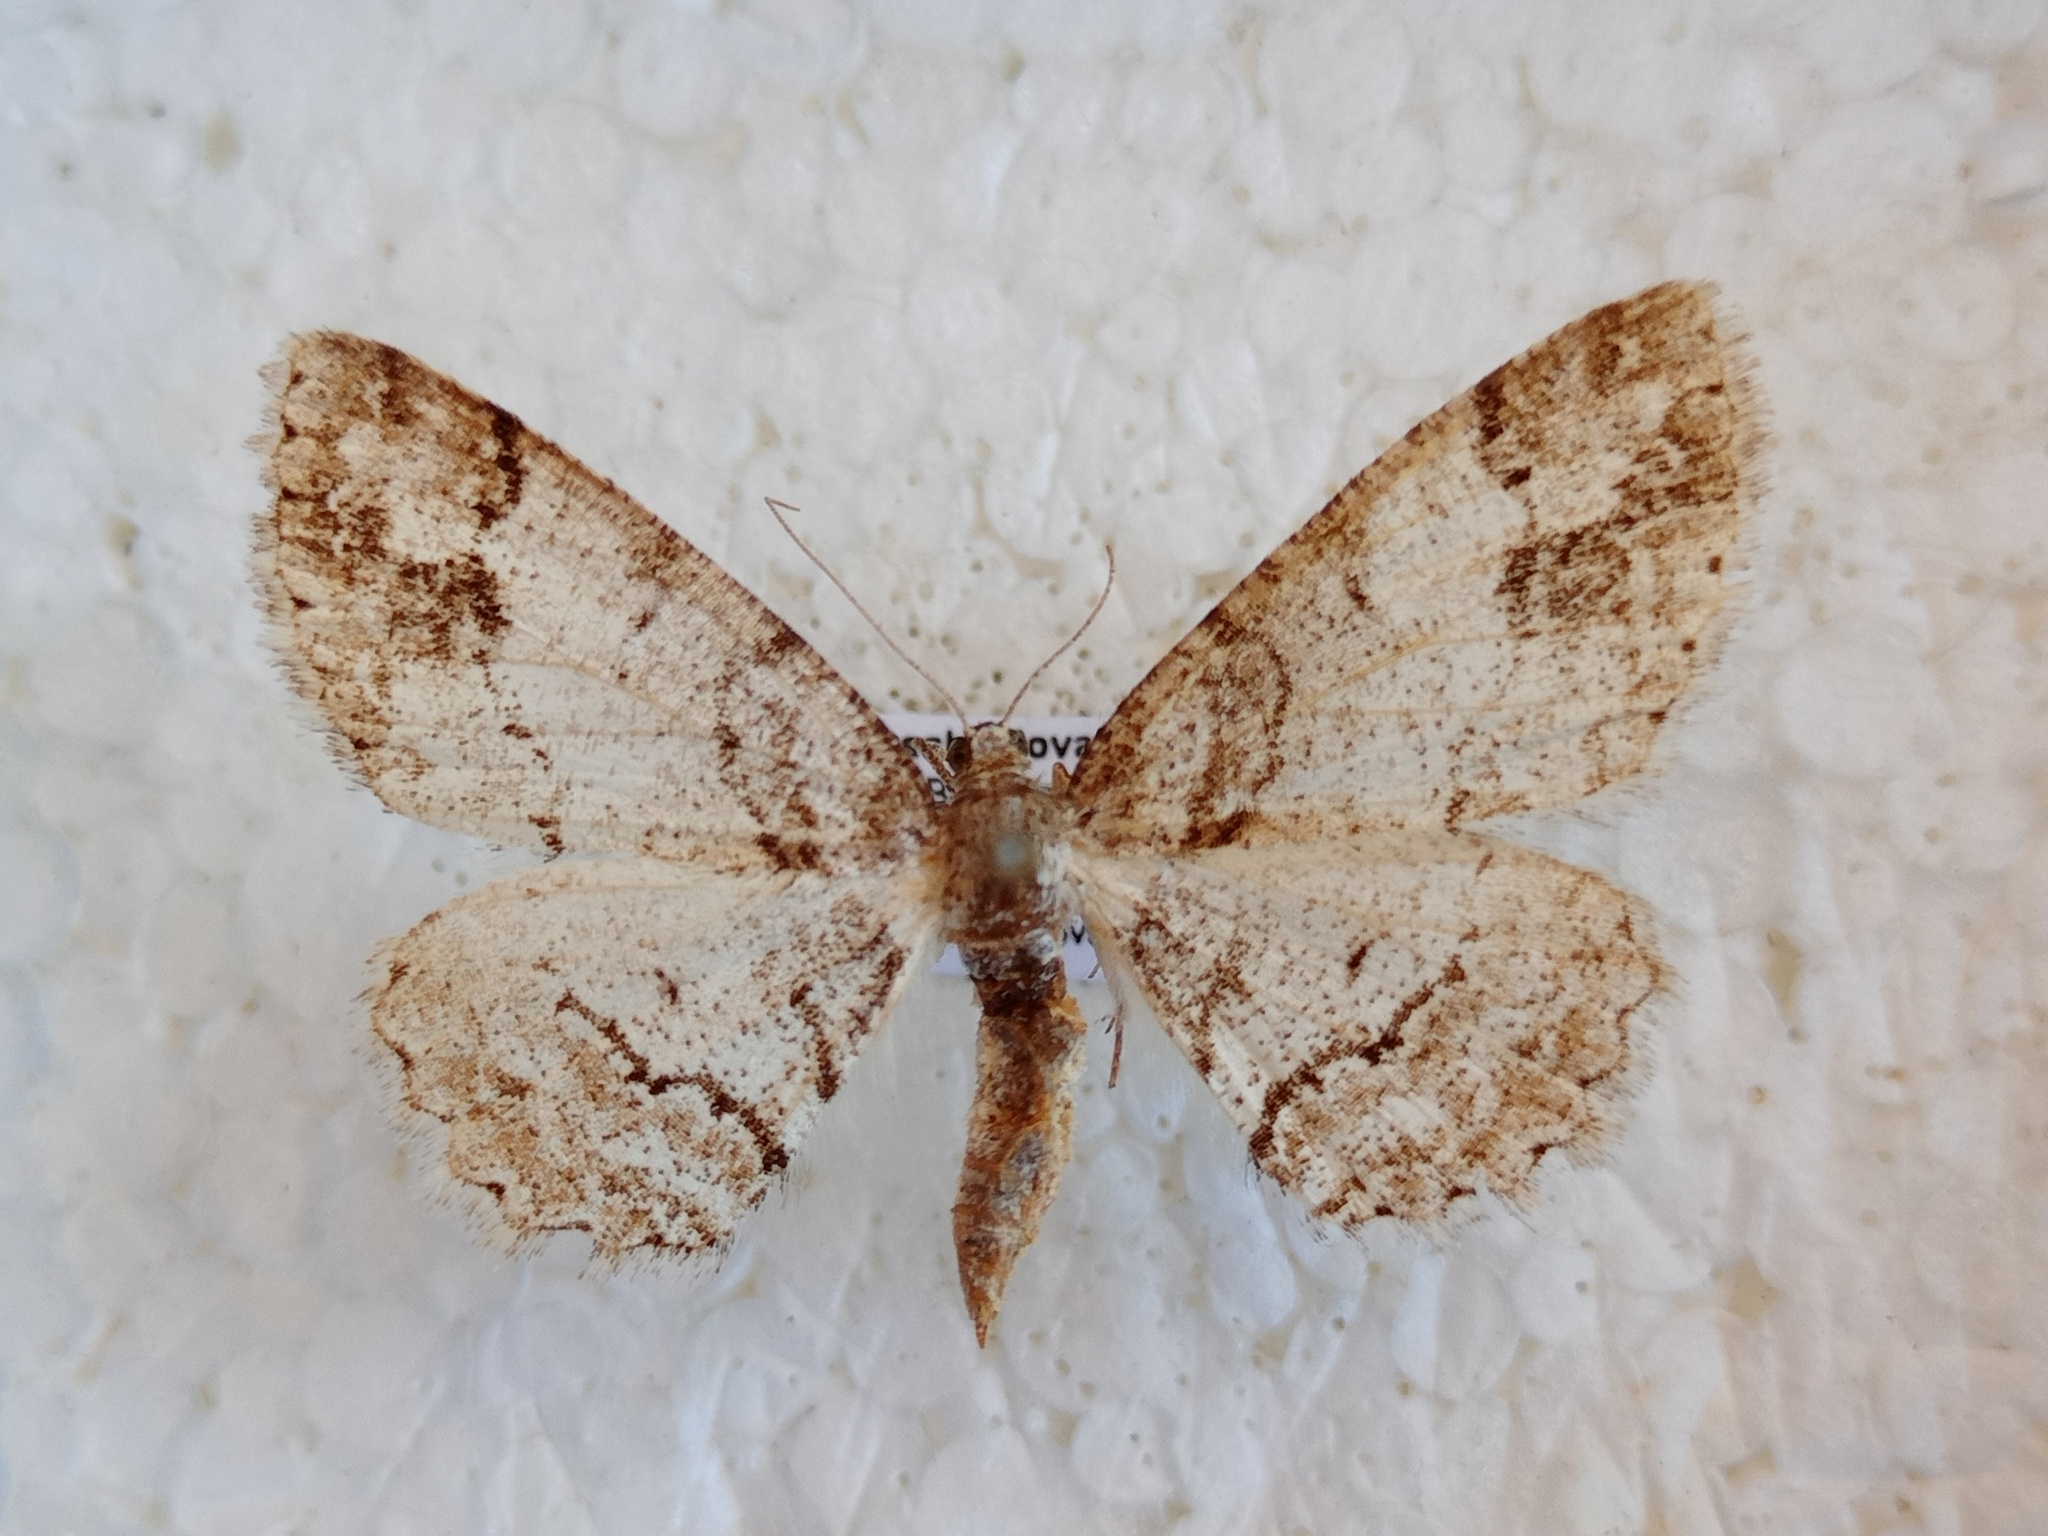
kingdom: Animalia
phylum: Arthropoda
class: Insecta
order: Lepidoptera
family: Geometridae
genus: Paradarisa
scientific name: Paradarisa consonaria
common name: Square spot
